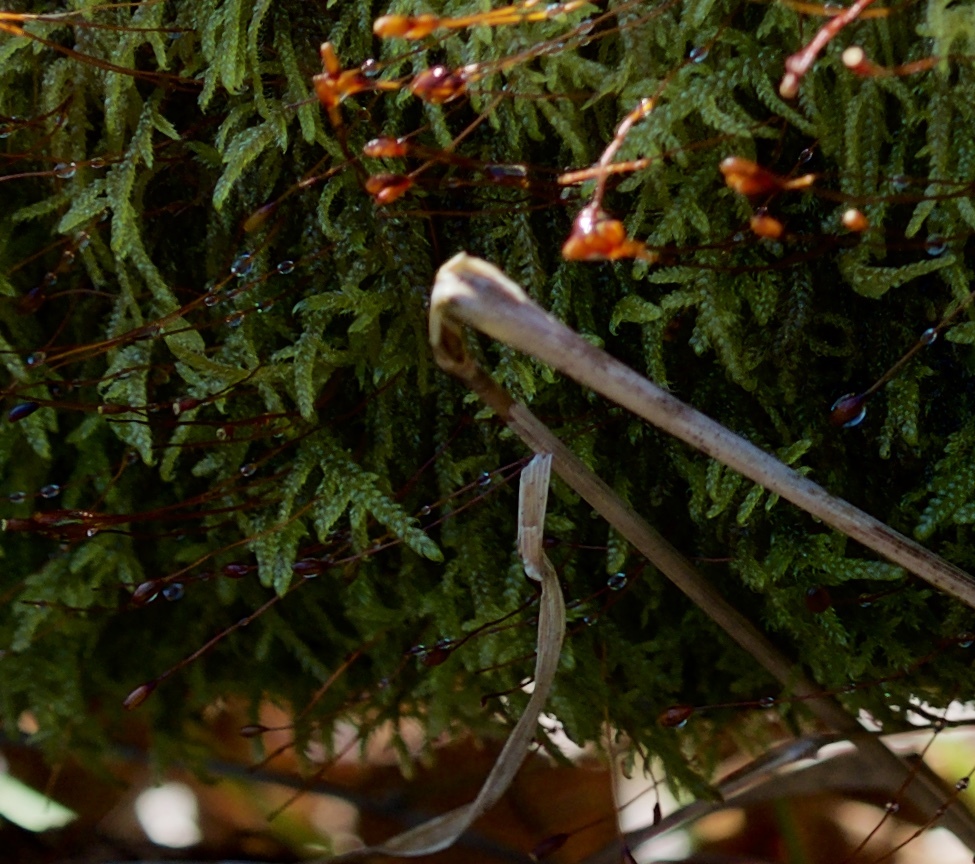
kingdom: Plantae
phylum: Bryophyta
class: Bryopsida
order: Hypnales
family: Hypnaceae
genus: Hypnum
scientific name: Hypnum cupressiforme
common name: Cypress-leaved plait-moss
